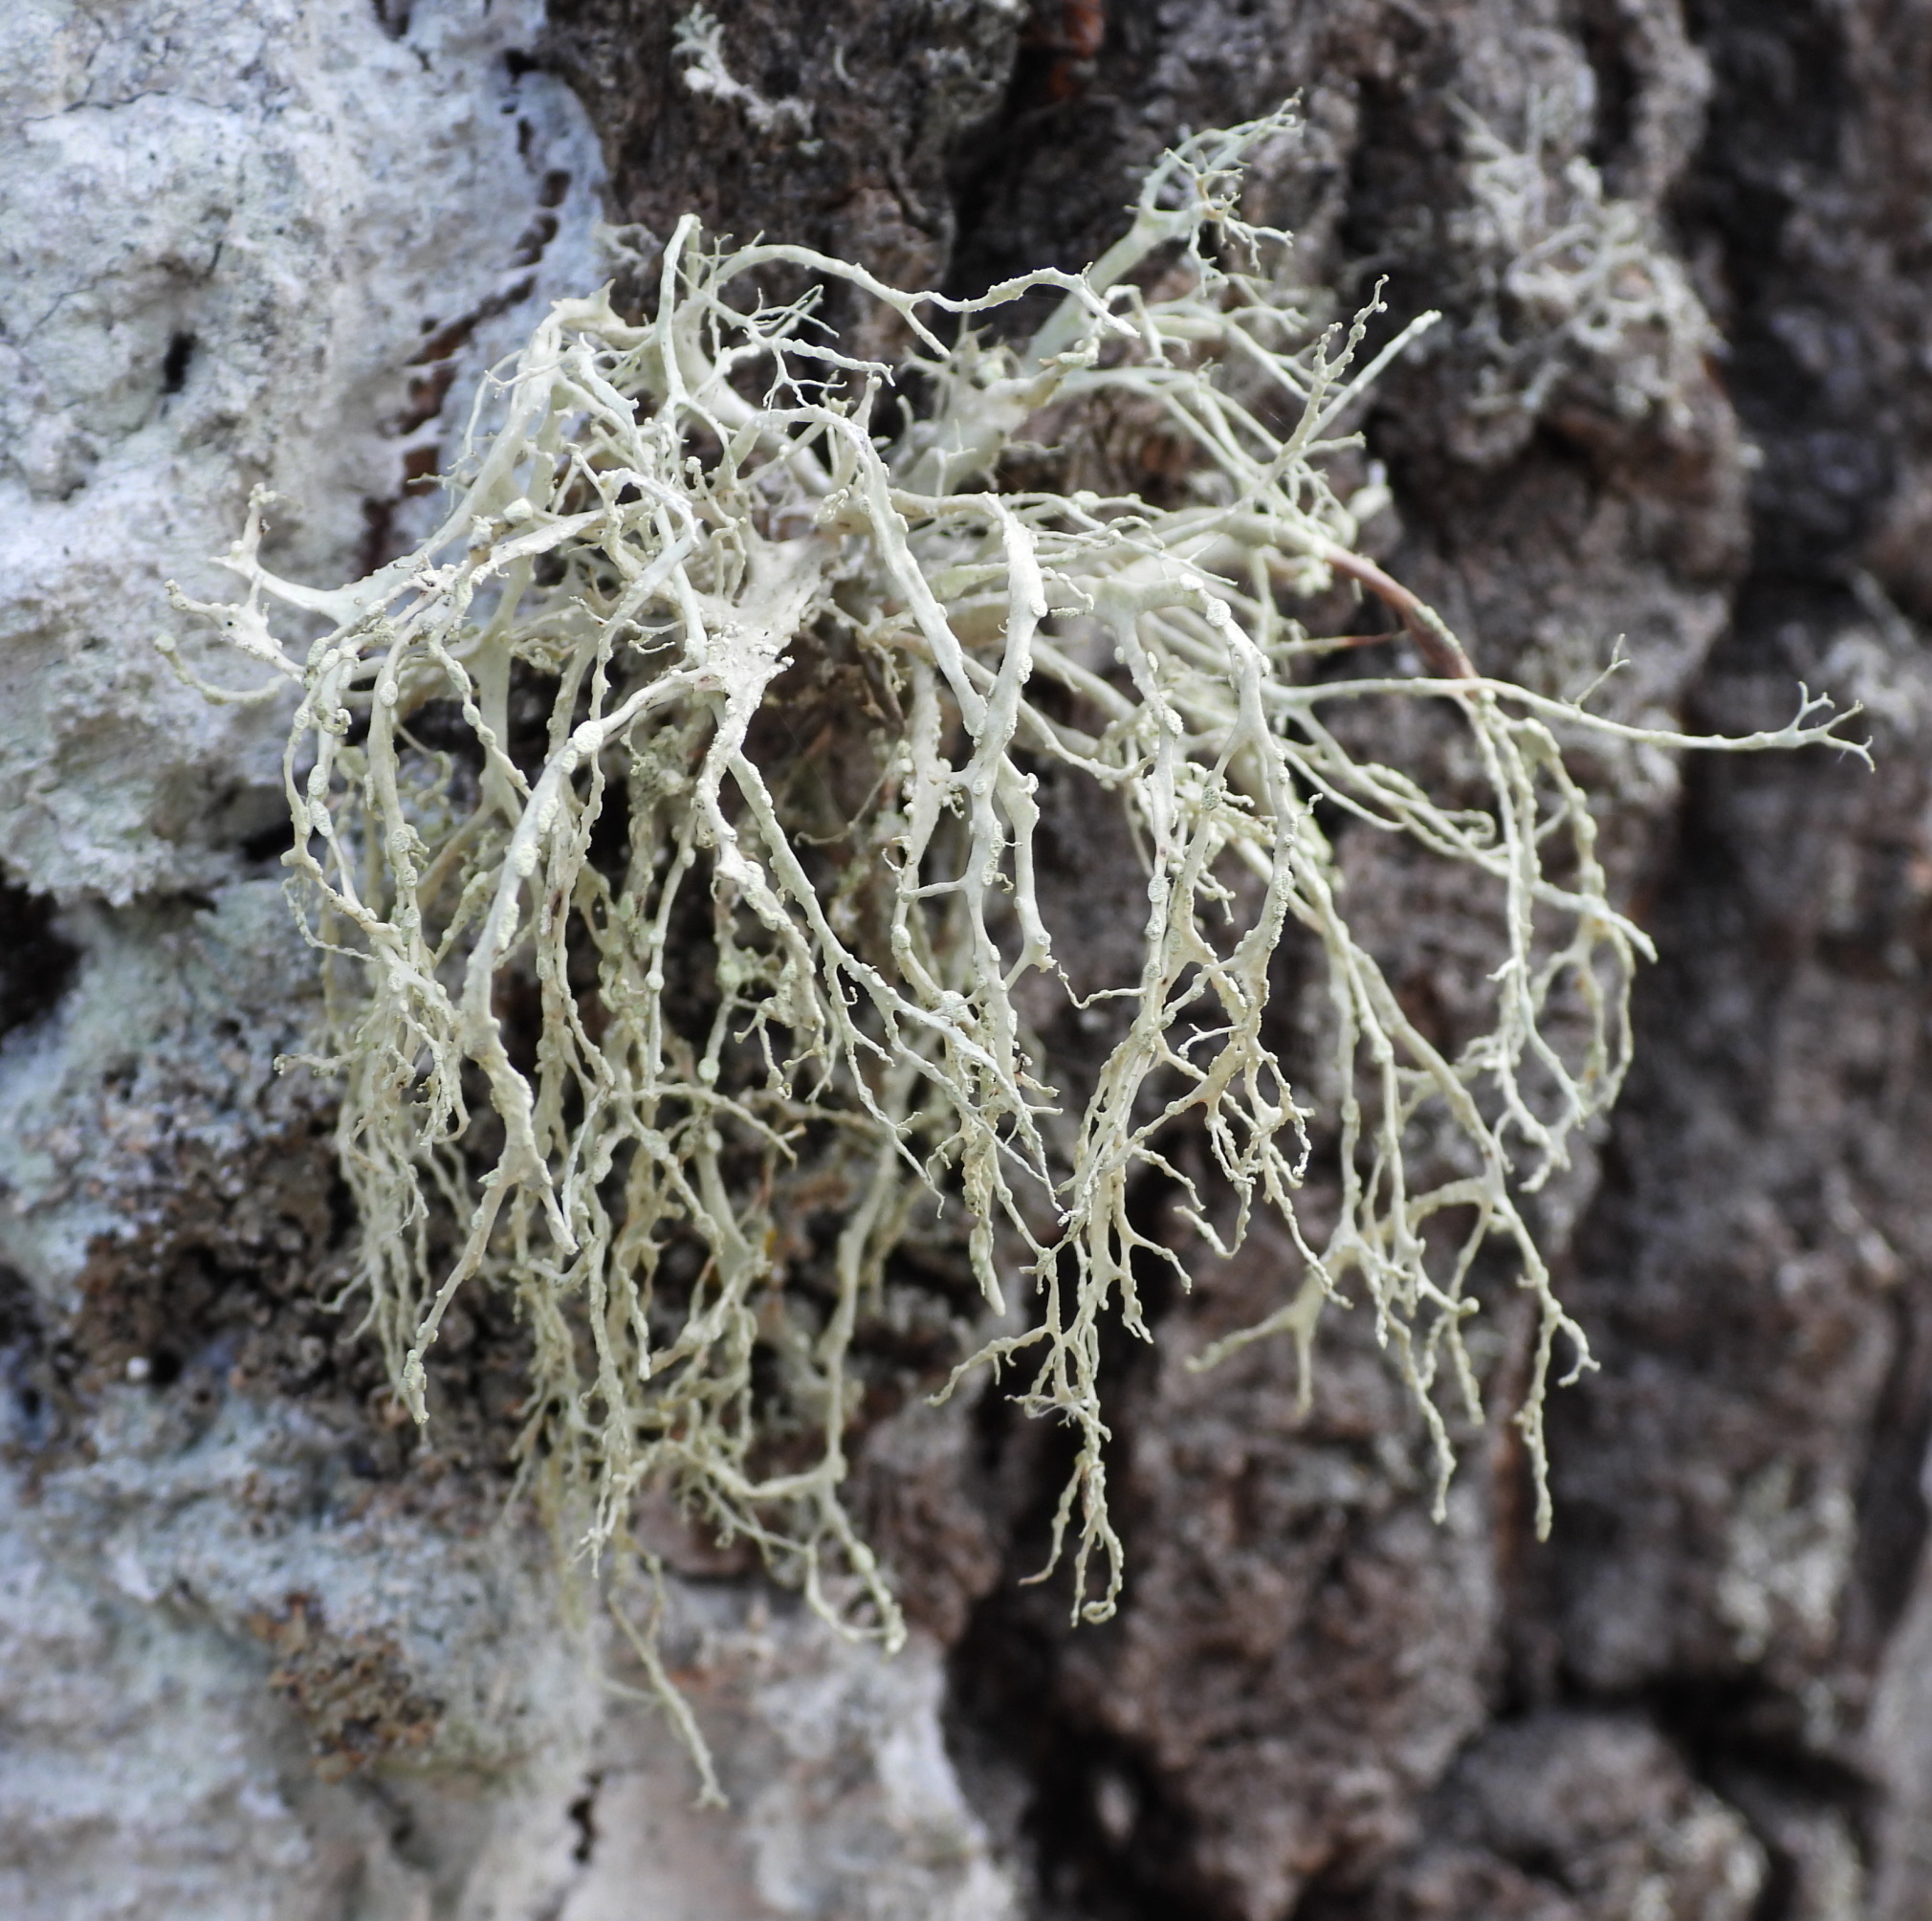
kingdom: Fungi
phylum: Ascomycota
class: Lecanoromycetes
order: Lecanorales
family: Ramalinaceae
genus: Ramalina
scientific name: Ramalina farinacea
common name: Farinose cartilage lichen
